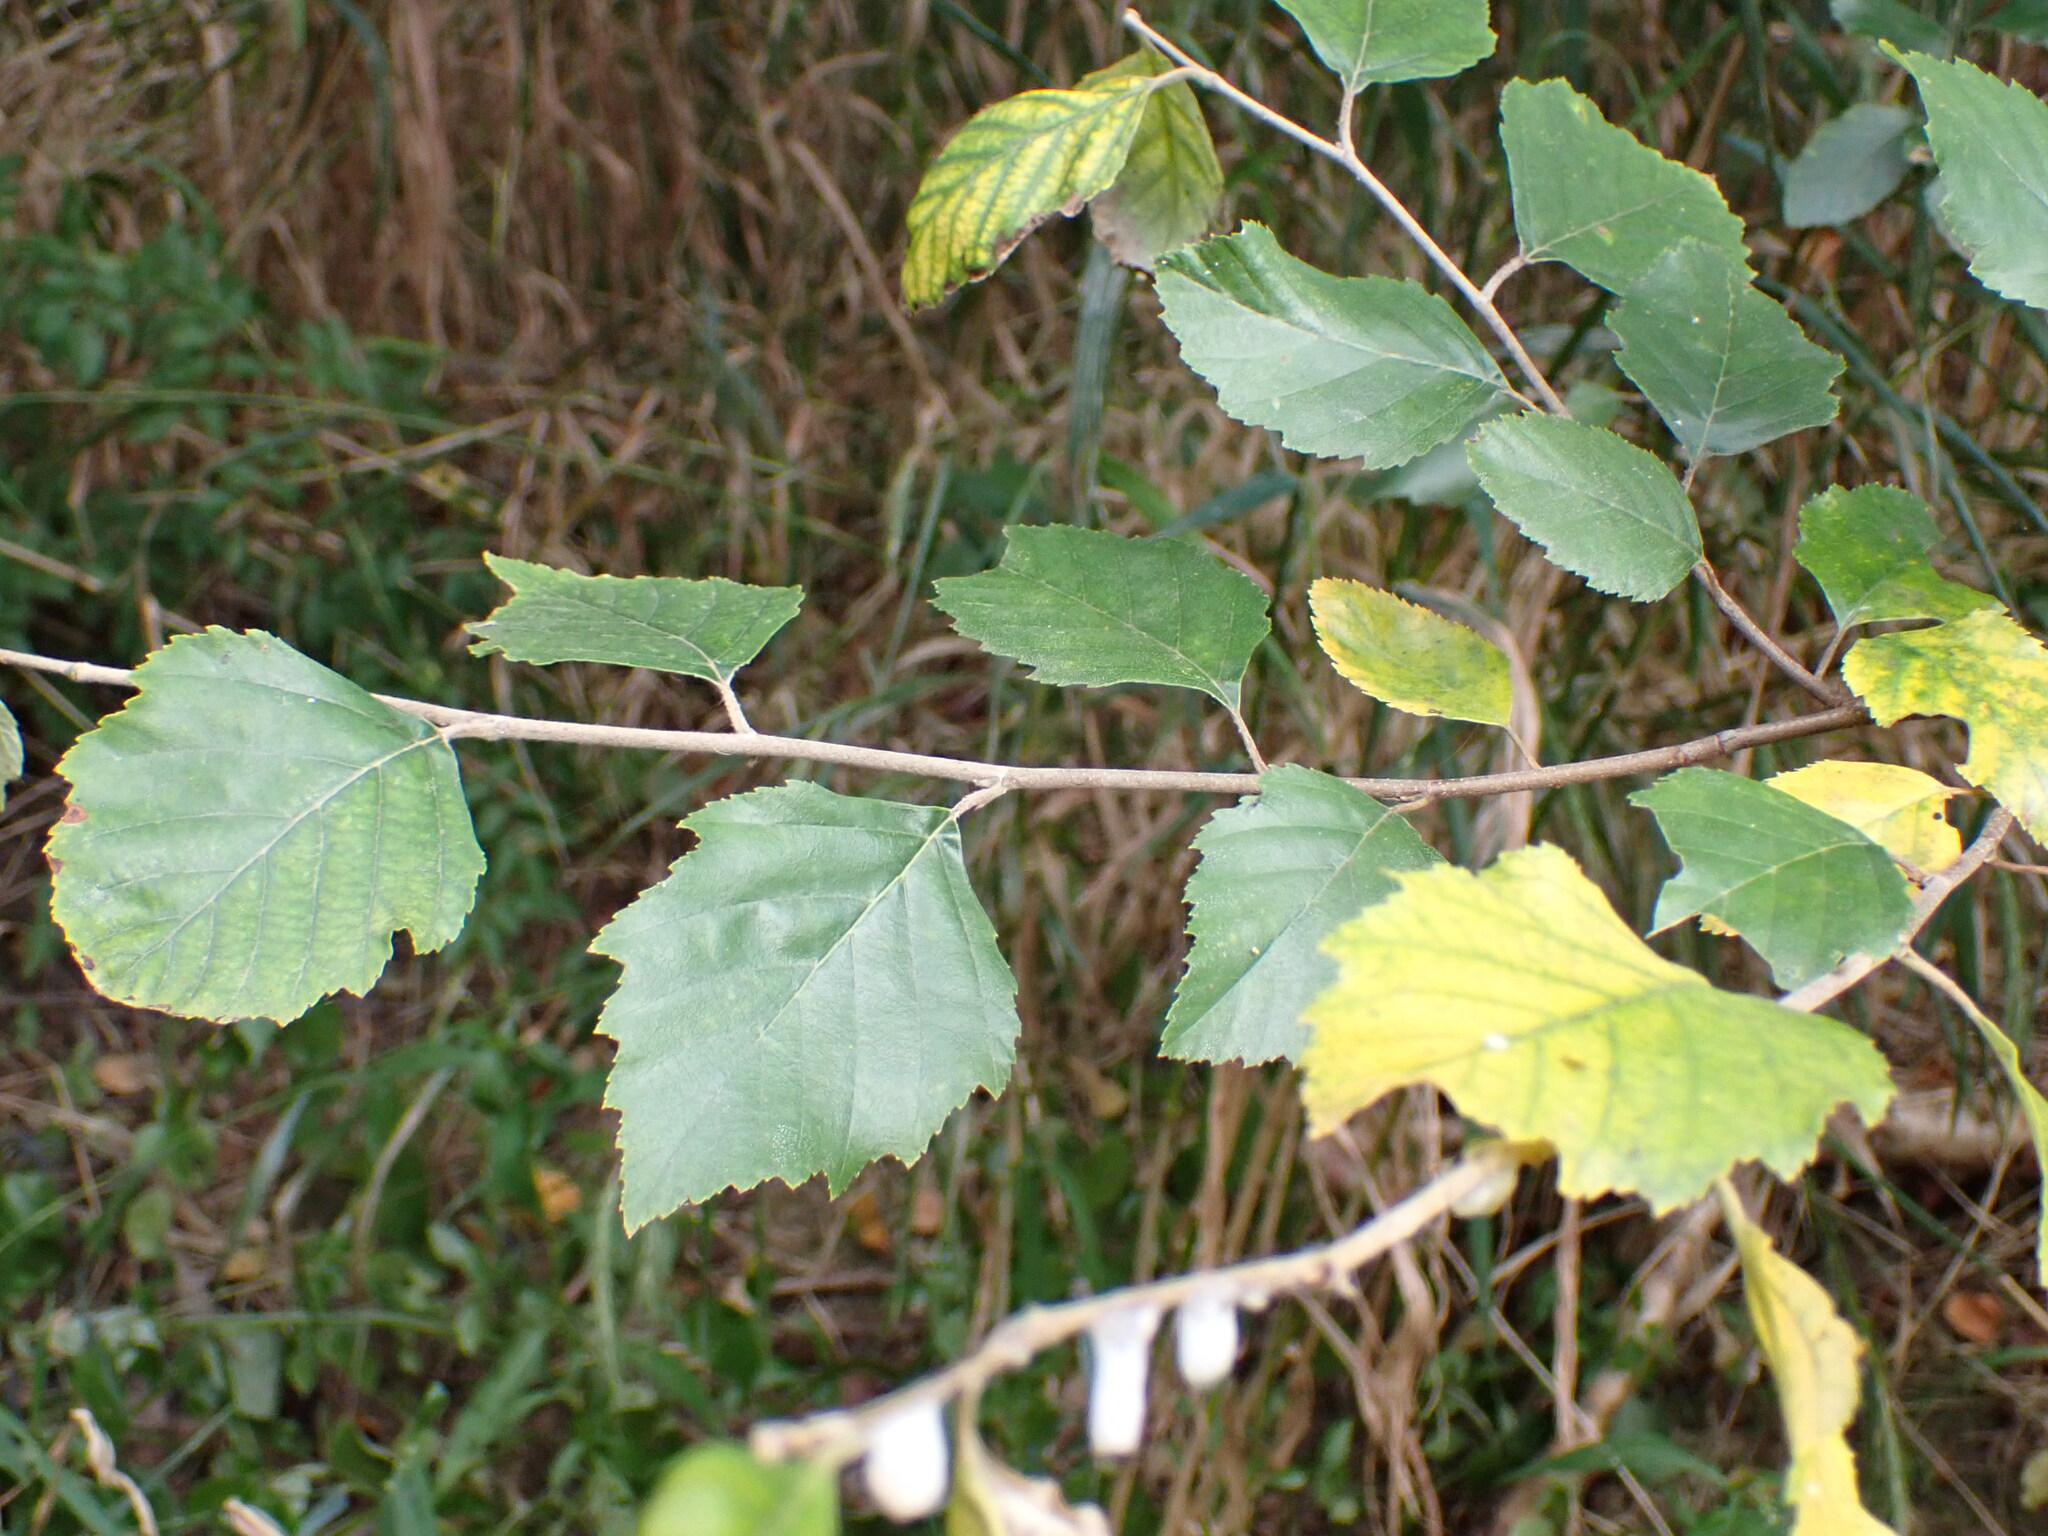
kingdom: Plantae
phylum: Tracheophyta
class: Magnoliopsida
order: Fagales
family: Betulaceae
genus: Betula
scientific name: Betula nigra
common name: Black birch
